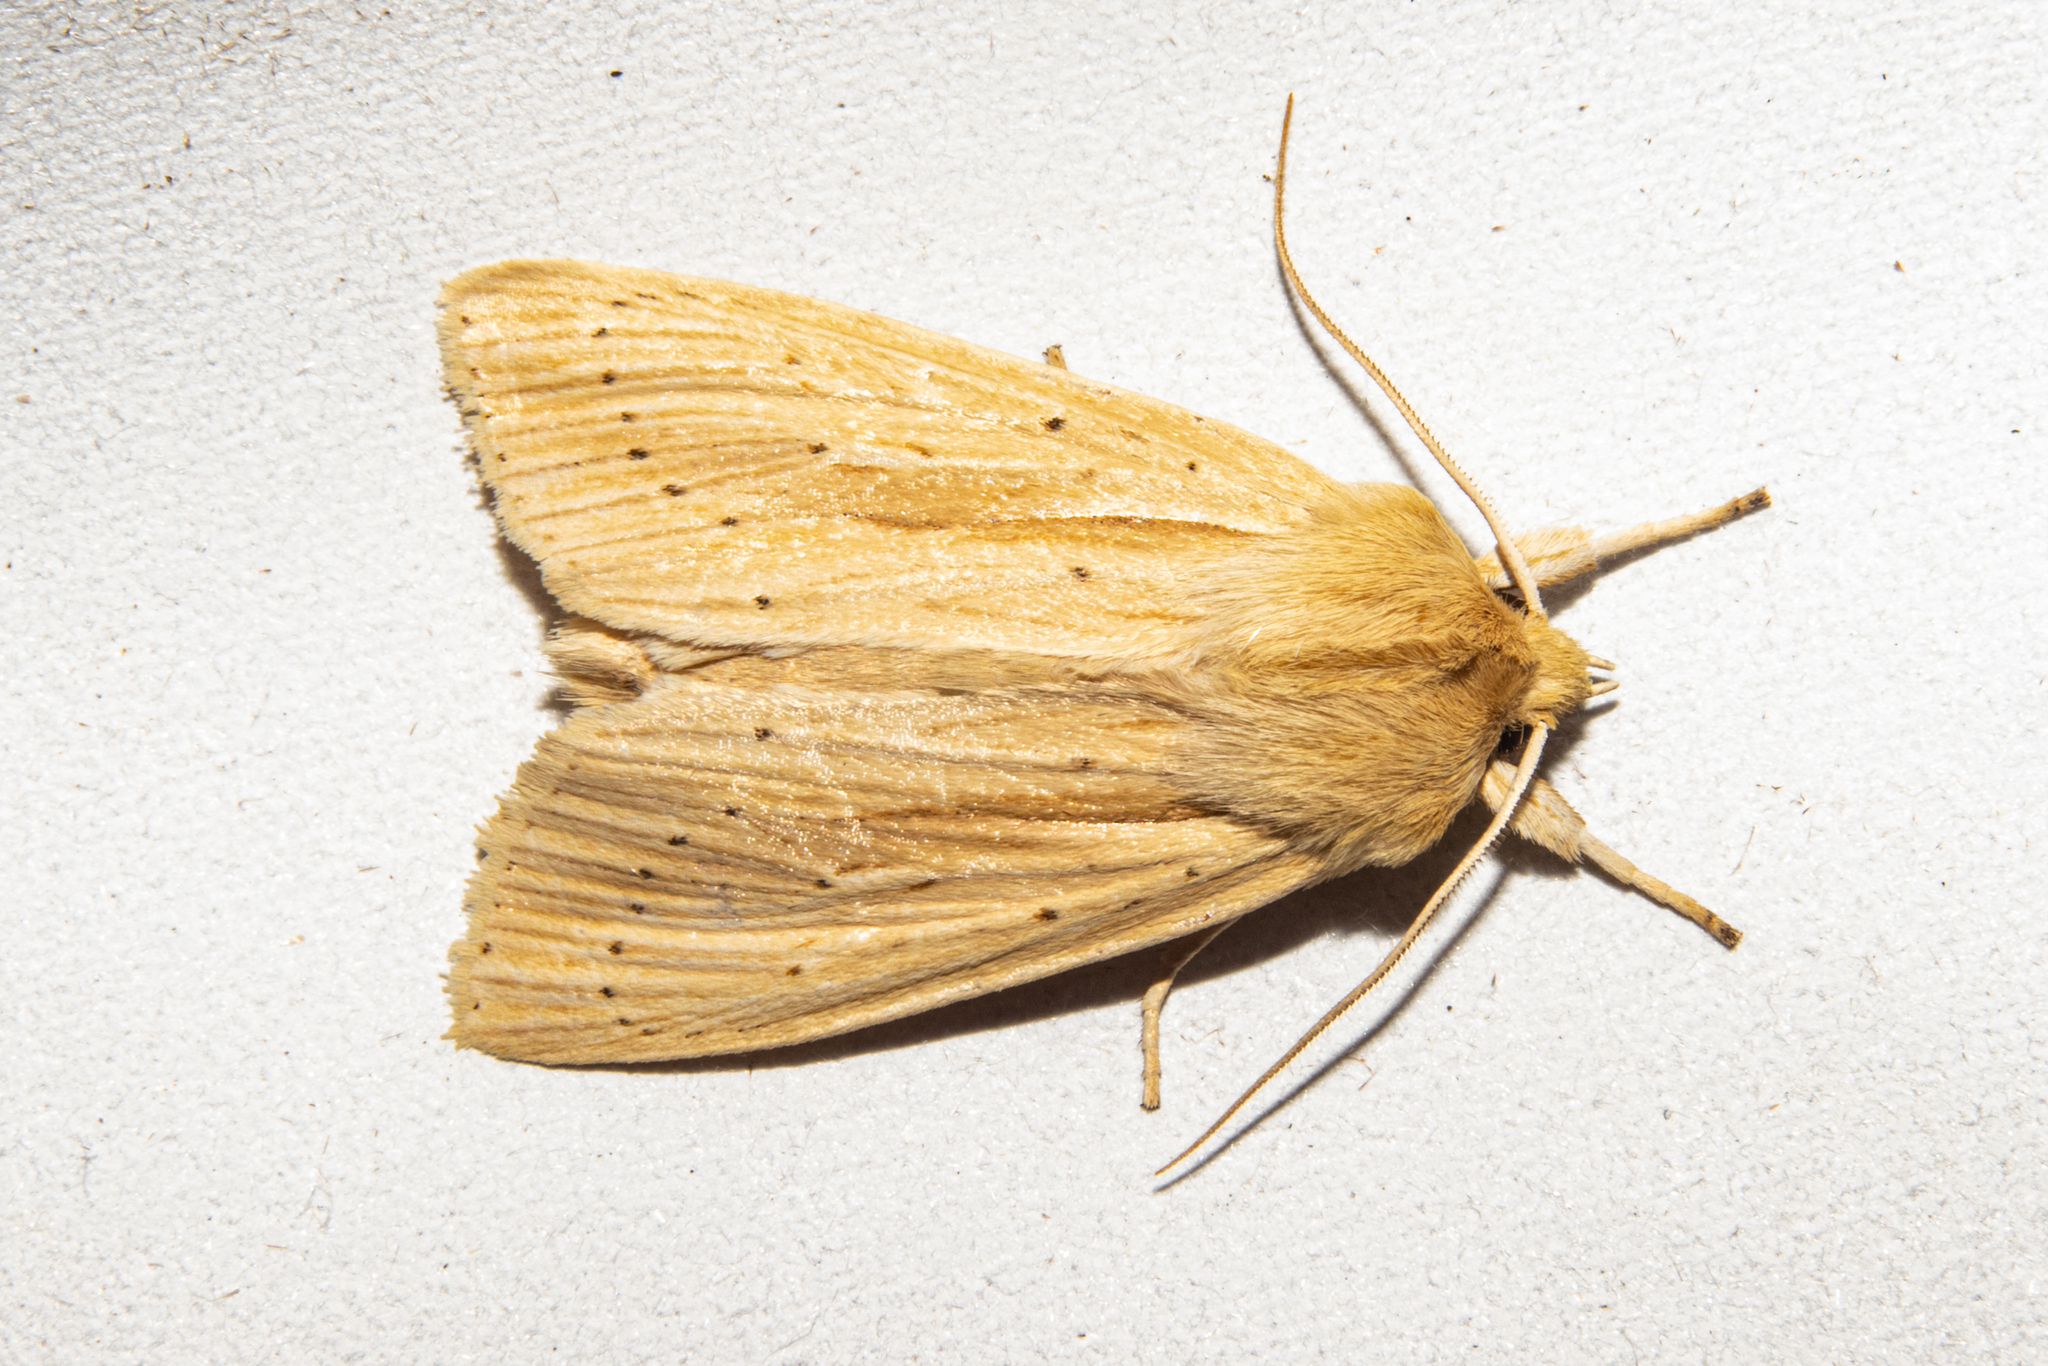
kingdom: Animalia
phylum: Arthropoda
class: Insecta
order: Lepidoptera
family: Noctuidae
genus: Ichneutica
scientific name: Ichneutica semivittata
